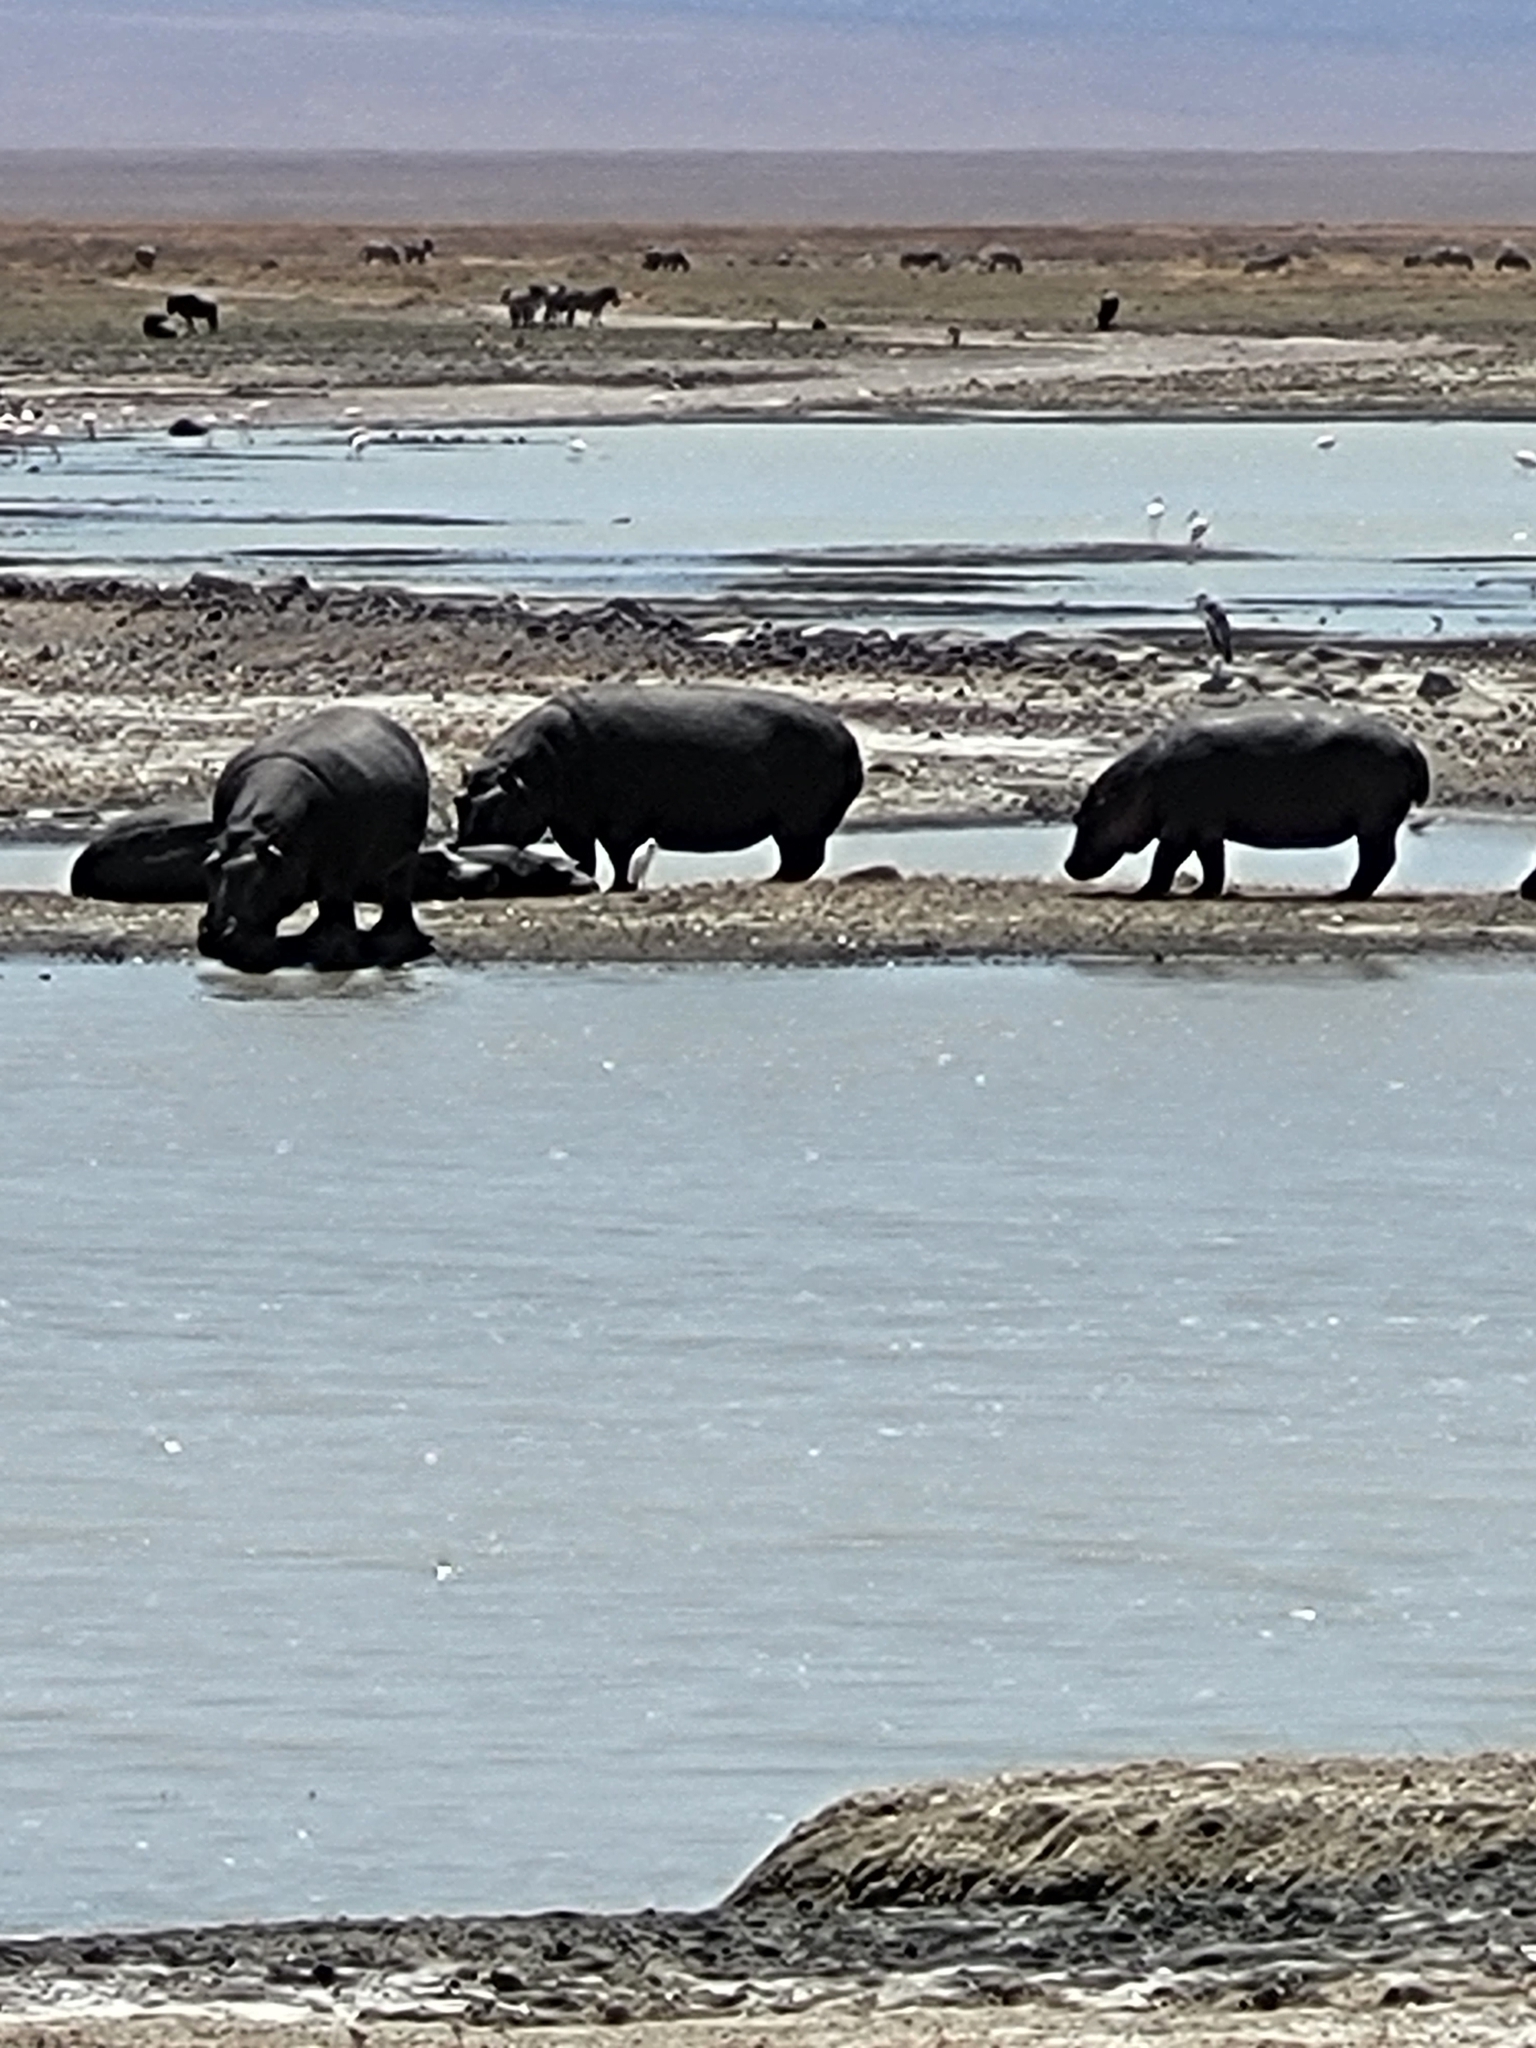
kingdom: Animalia
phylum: Chordata
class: Mammalia
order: Artiodactyla
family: Hippopotamidae
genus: Hippopotamus
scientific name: Hippopotamus amphibius
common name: Common hippopotamus
